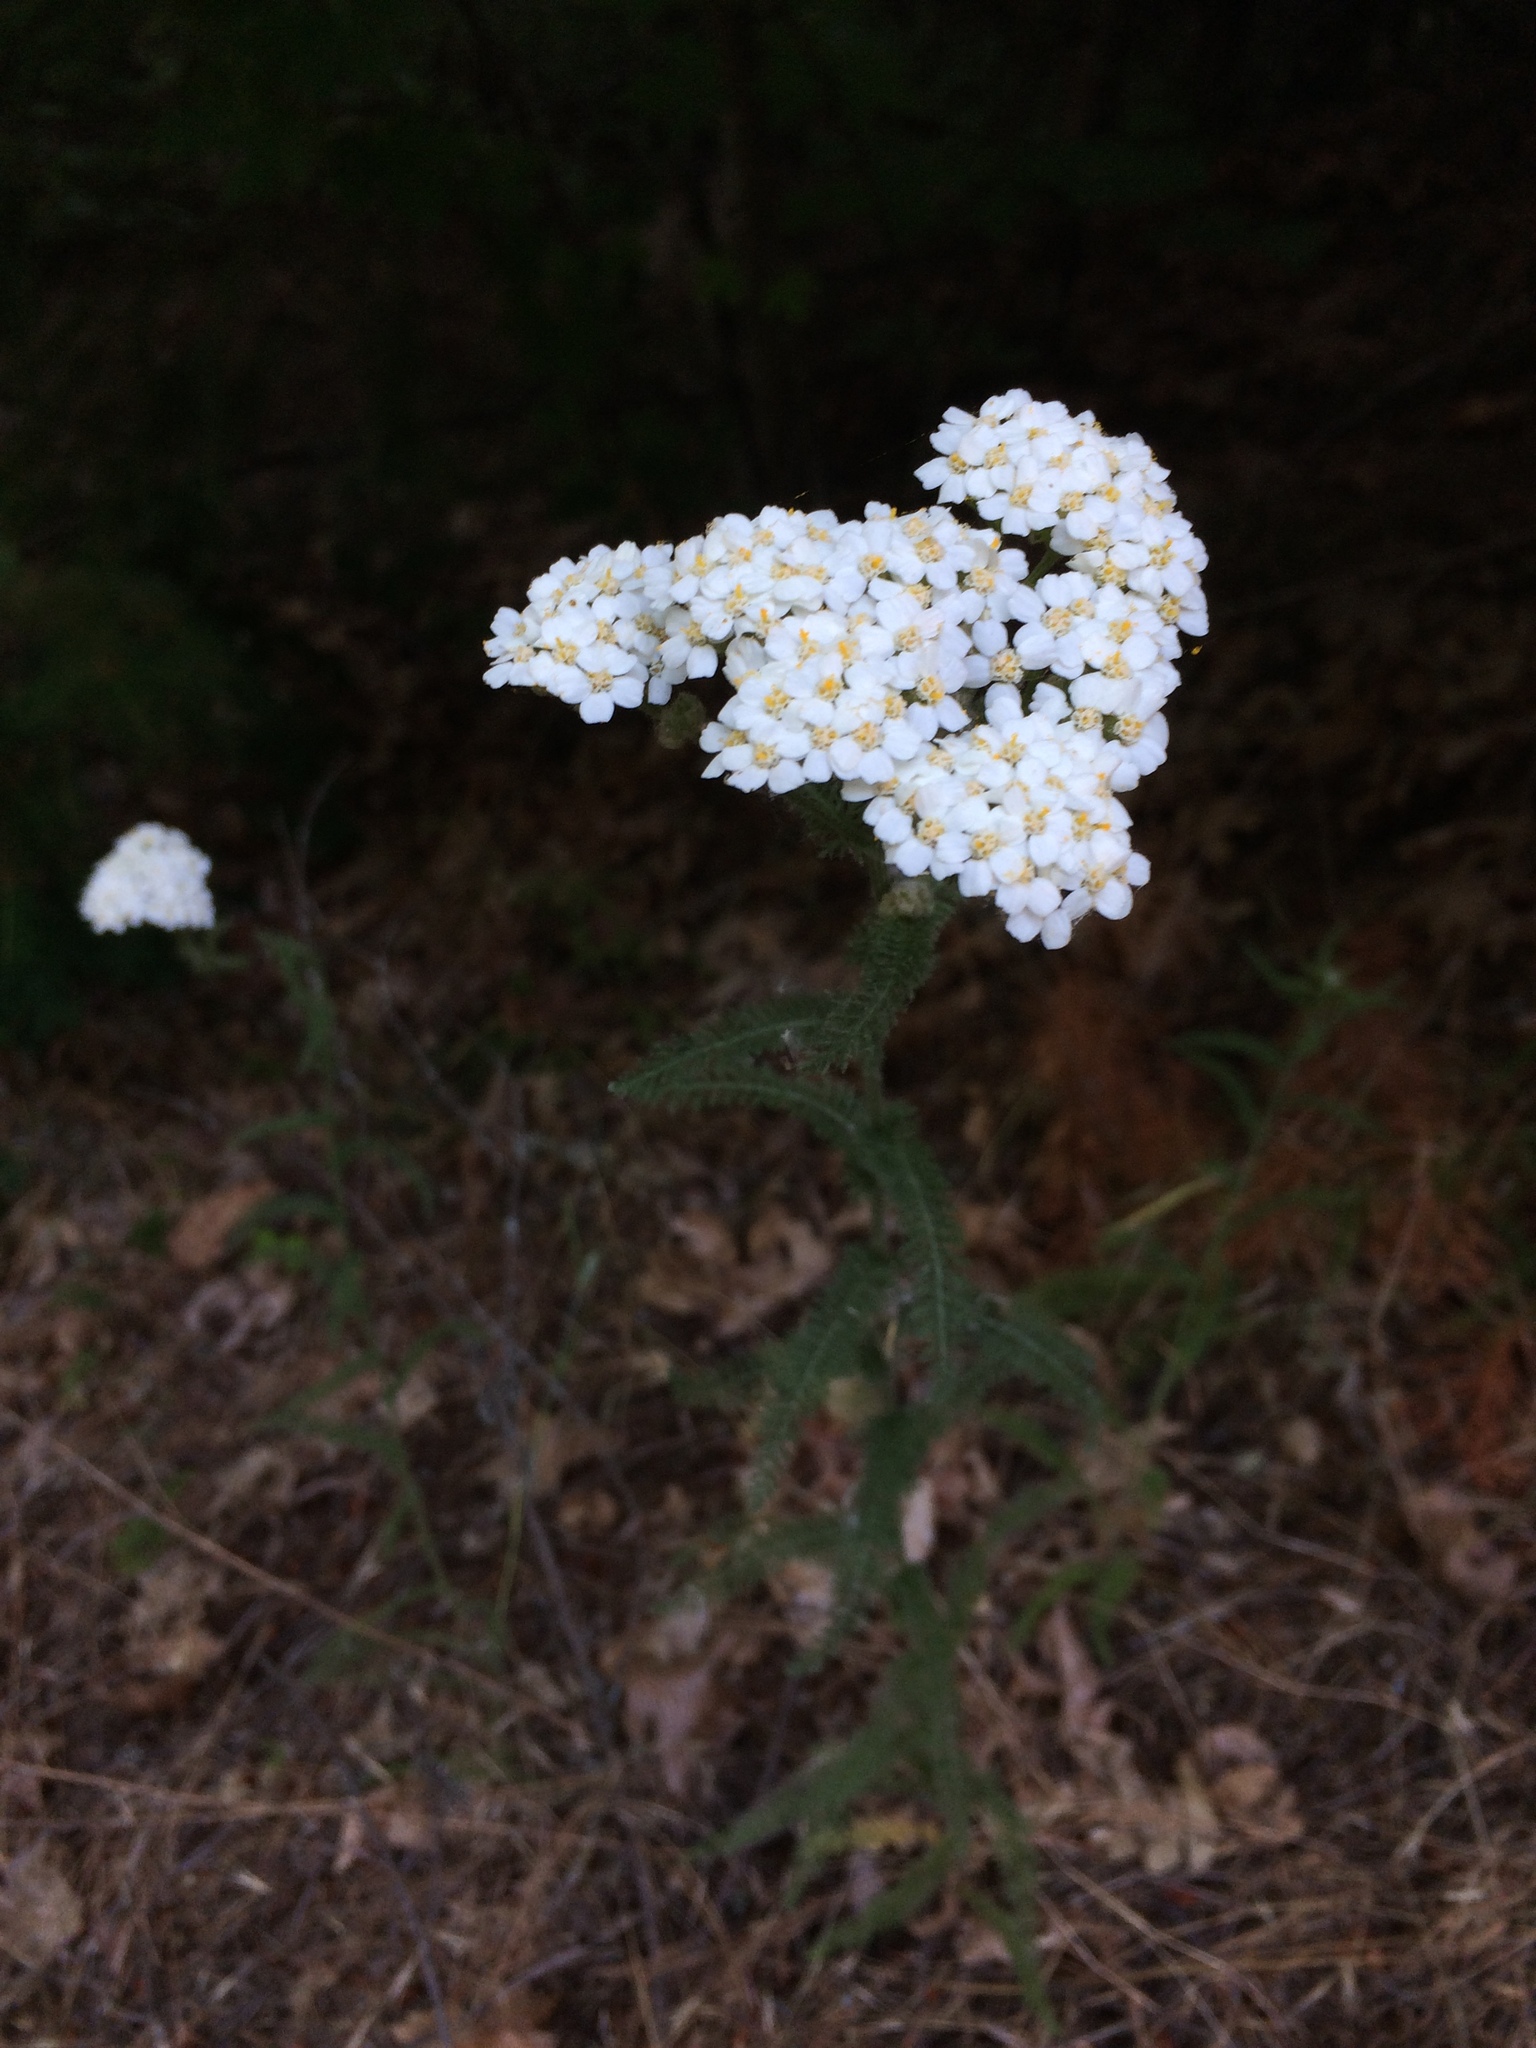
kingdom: Plantae
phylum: Tracheophyta
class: Magnoliopsida
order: Asterales
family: Asteraceae
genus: Achillea
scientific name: Achillea millefolium
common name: Yarrow
